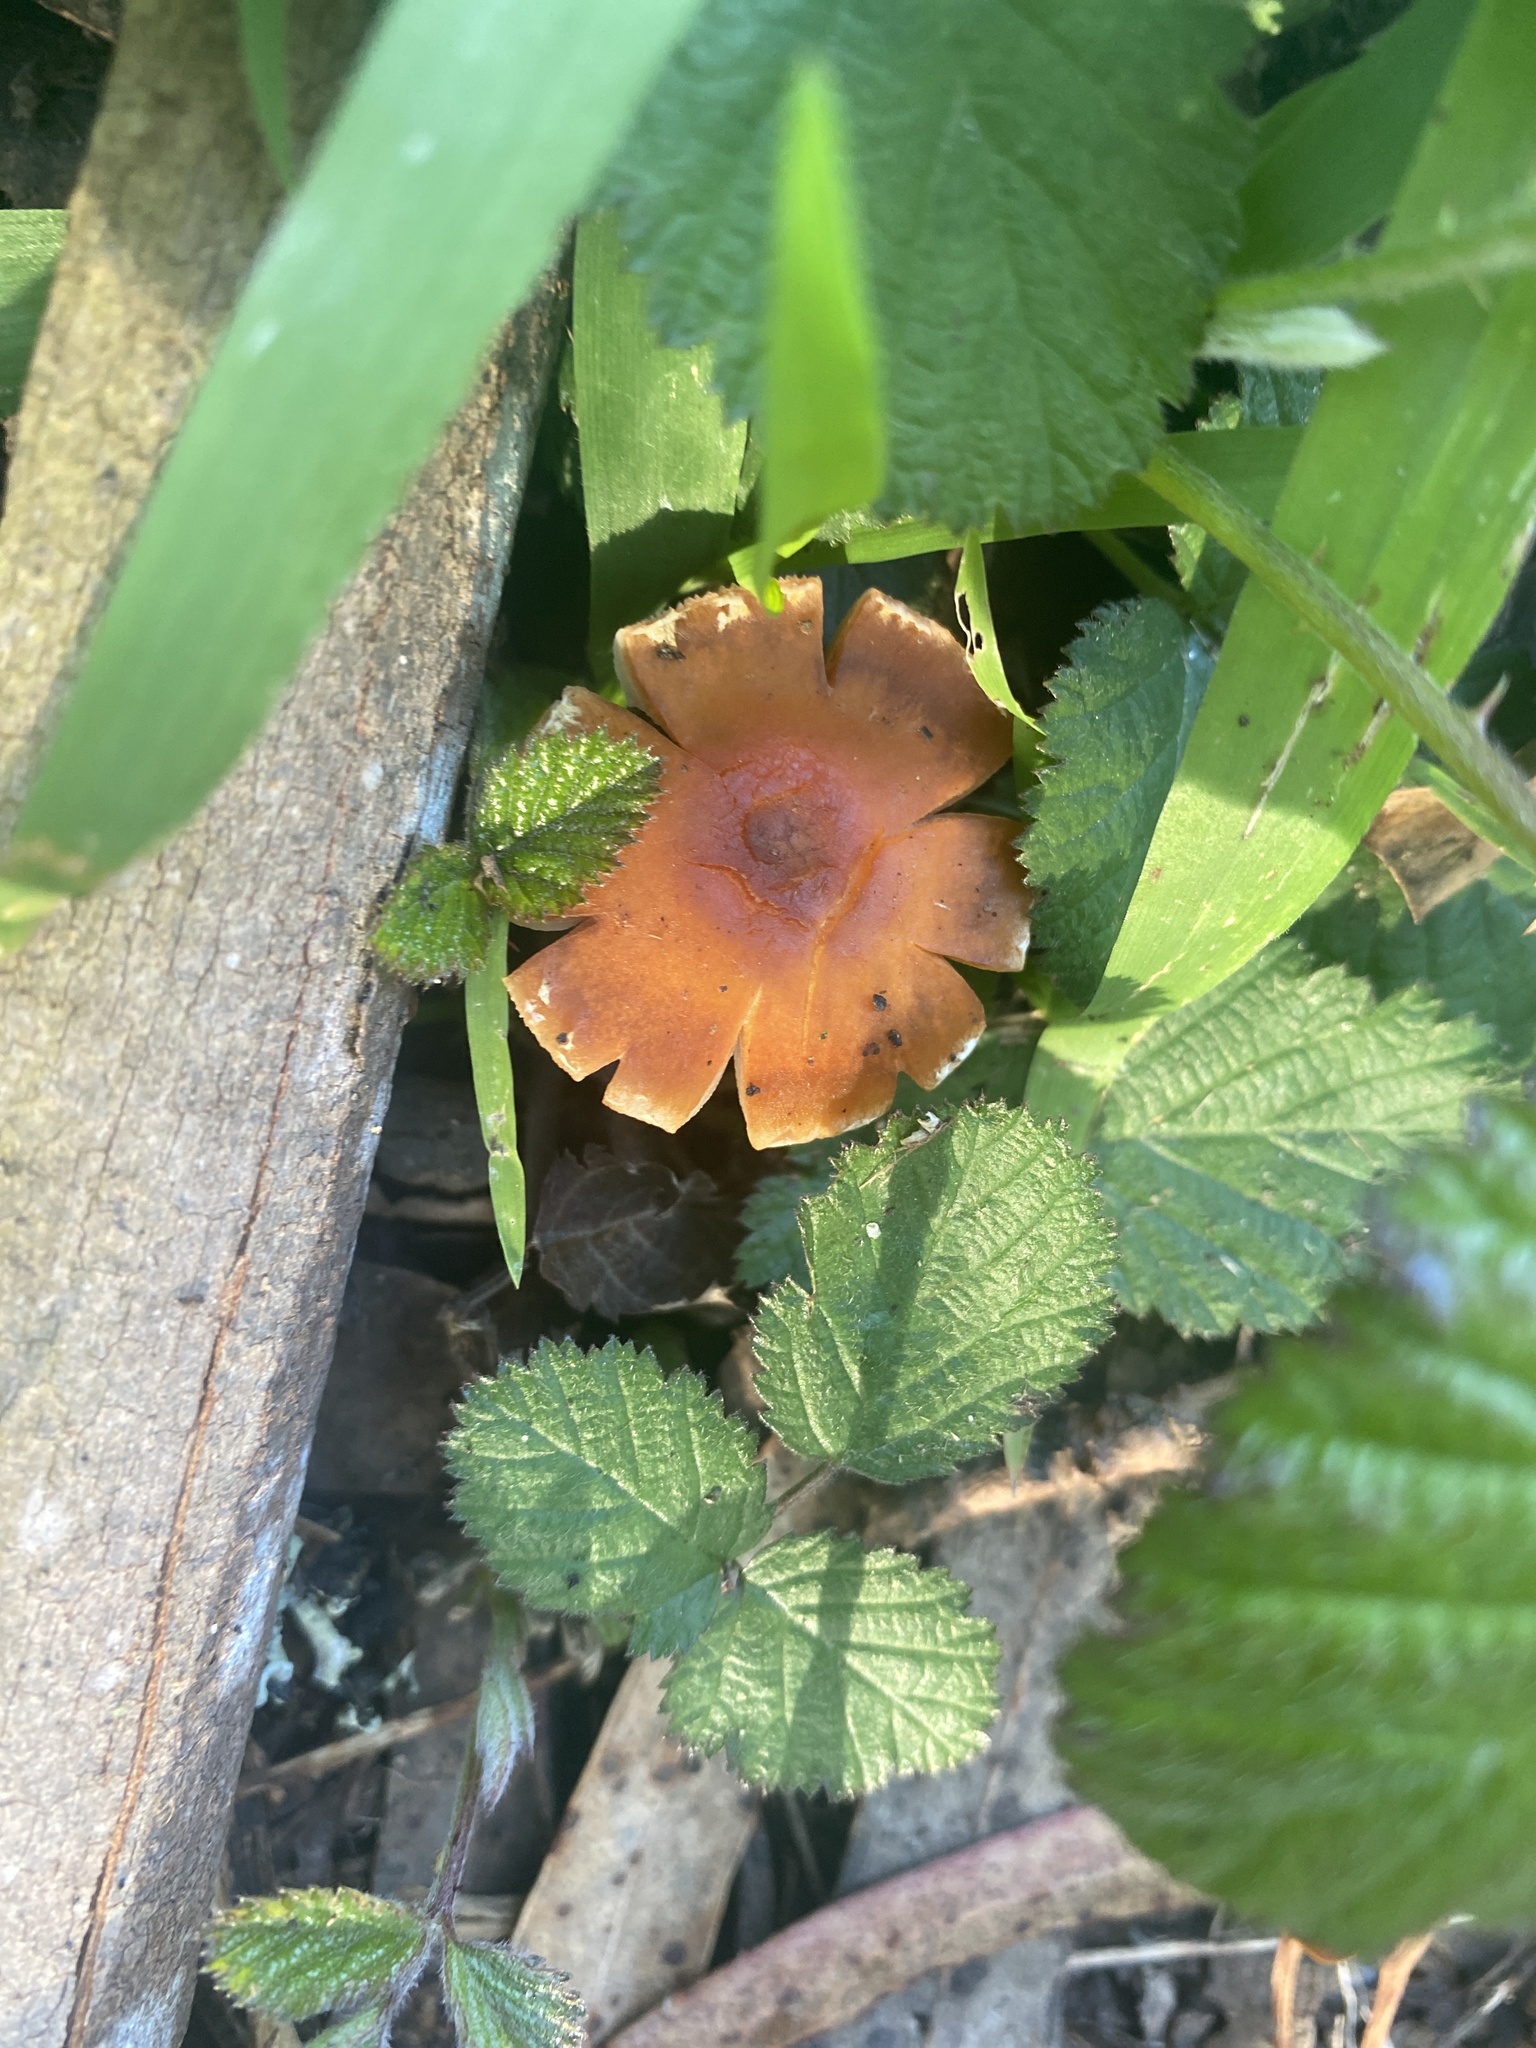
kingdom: Fungi
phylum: Basidiomycota
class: Agaricomycetes
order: Agaricales
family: Strophariaceae
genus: Leratiomyces
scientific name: Leratiomyces ceres
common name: Redlead roundhead
